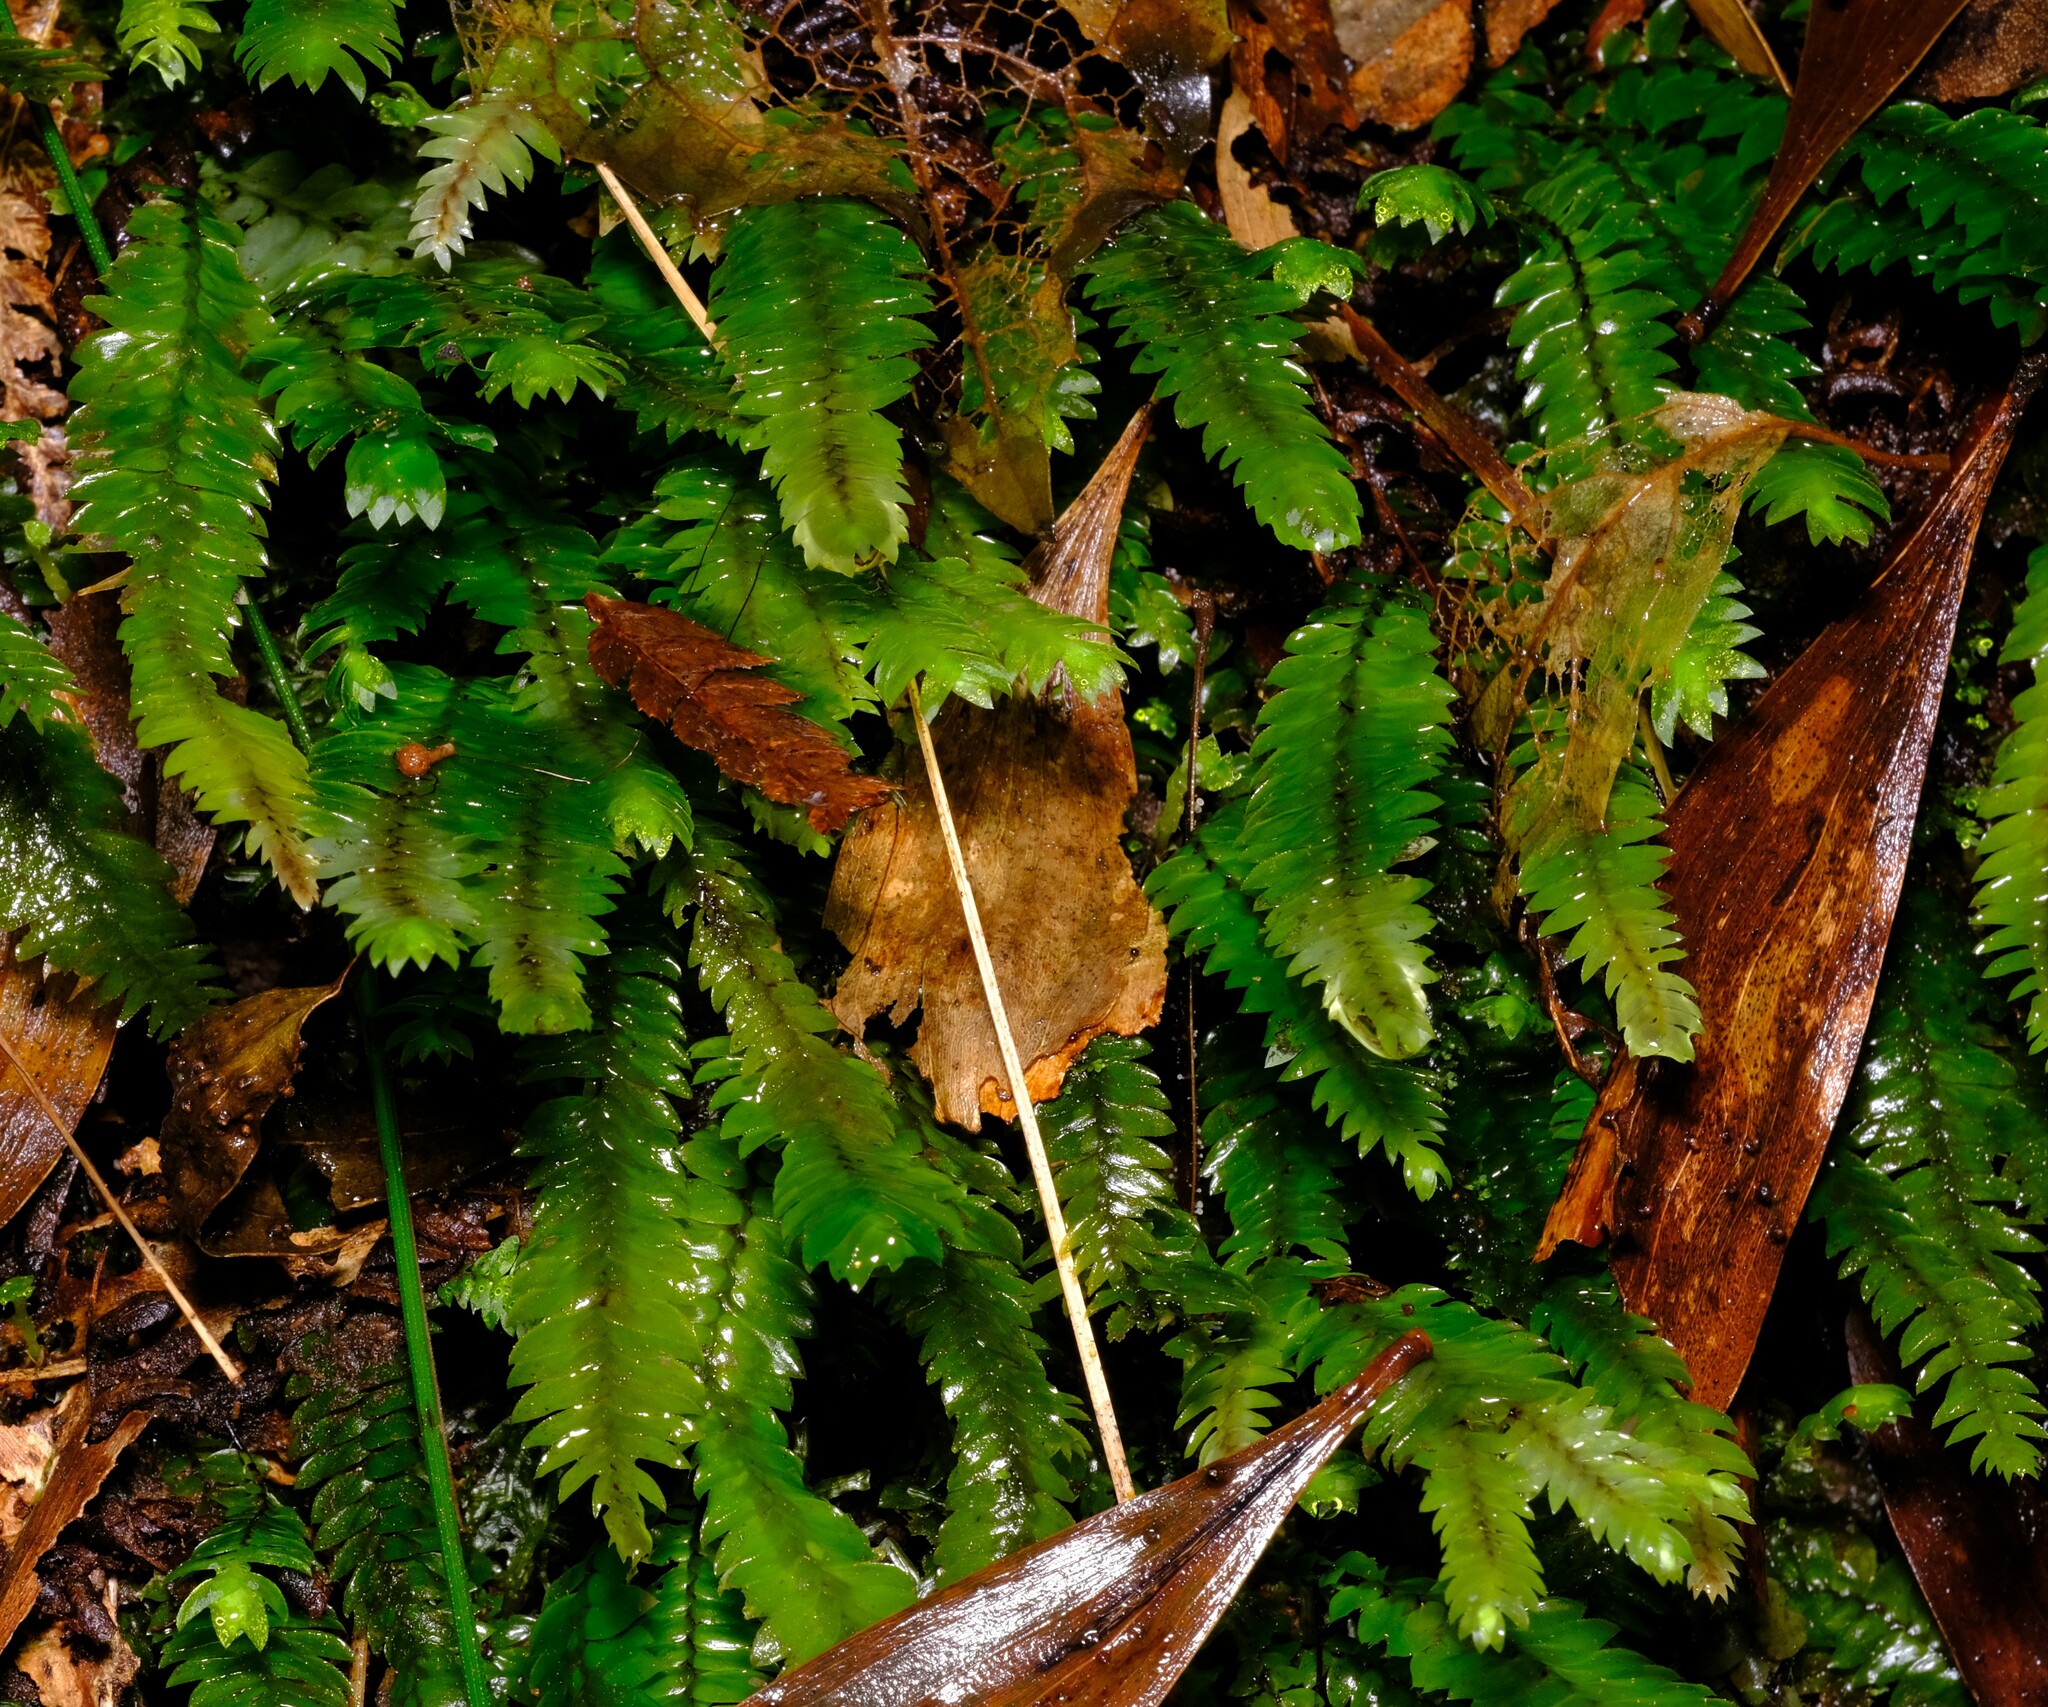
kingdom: Plantae
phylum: Bryophyta
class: Bryopsida
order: Hypopterygiales
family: Hypopterygiaceae
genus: Cyathophorum
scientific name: Cyathophorum bulbosum
